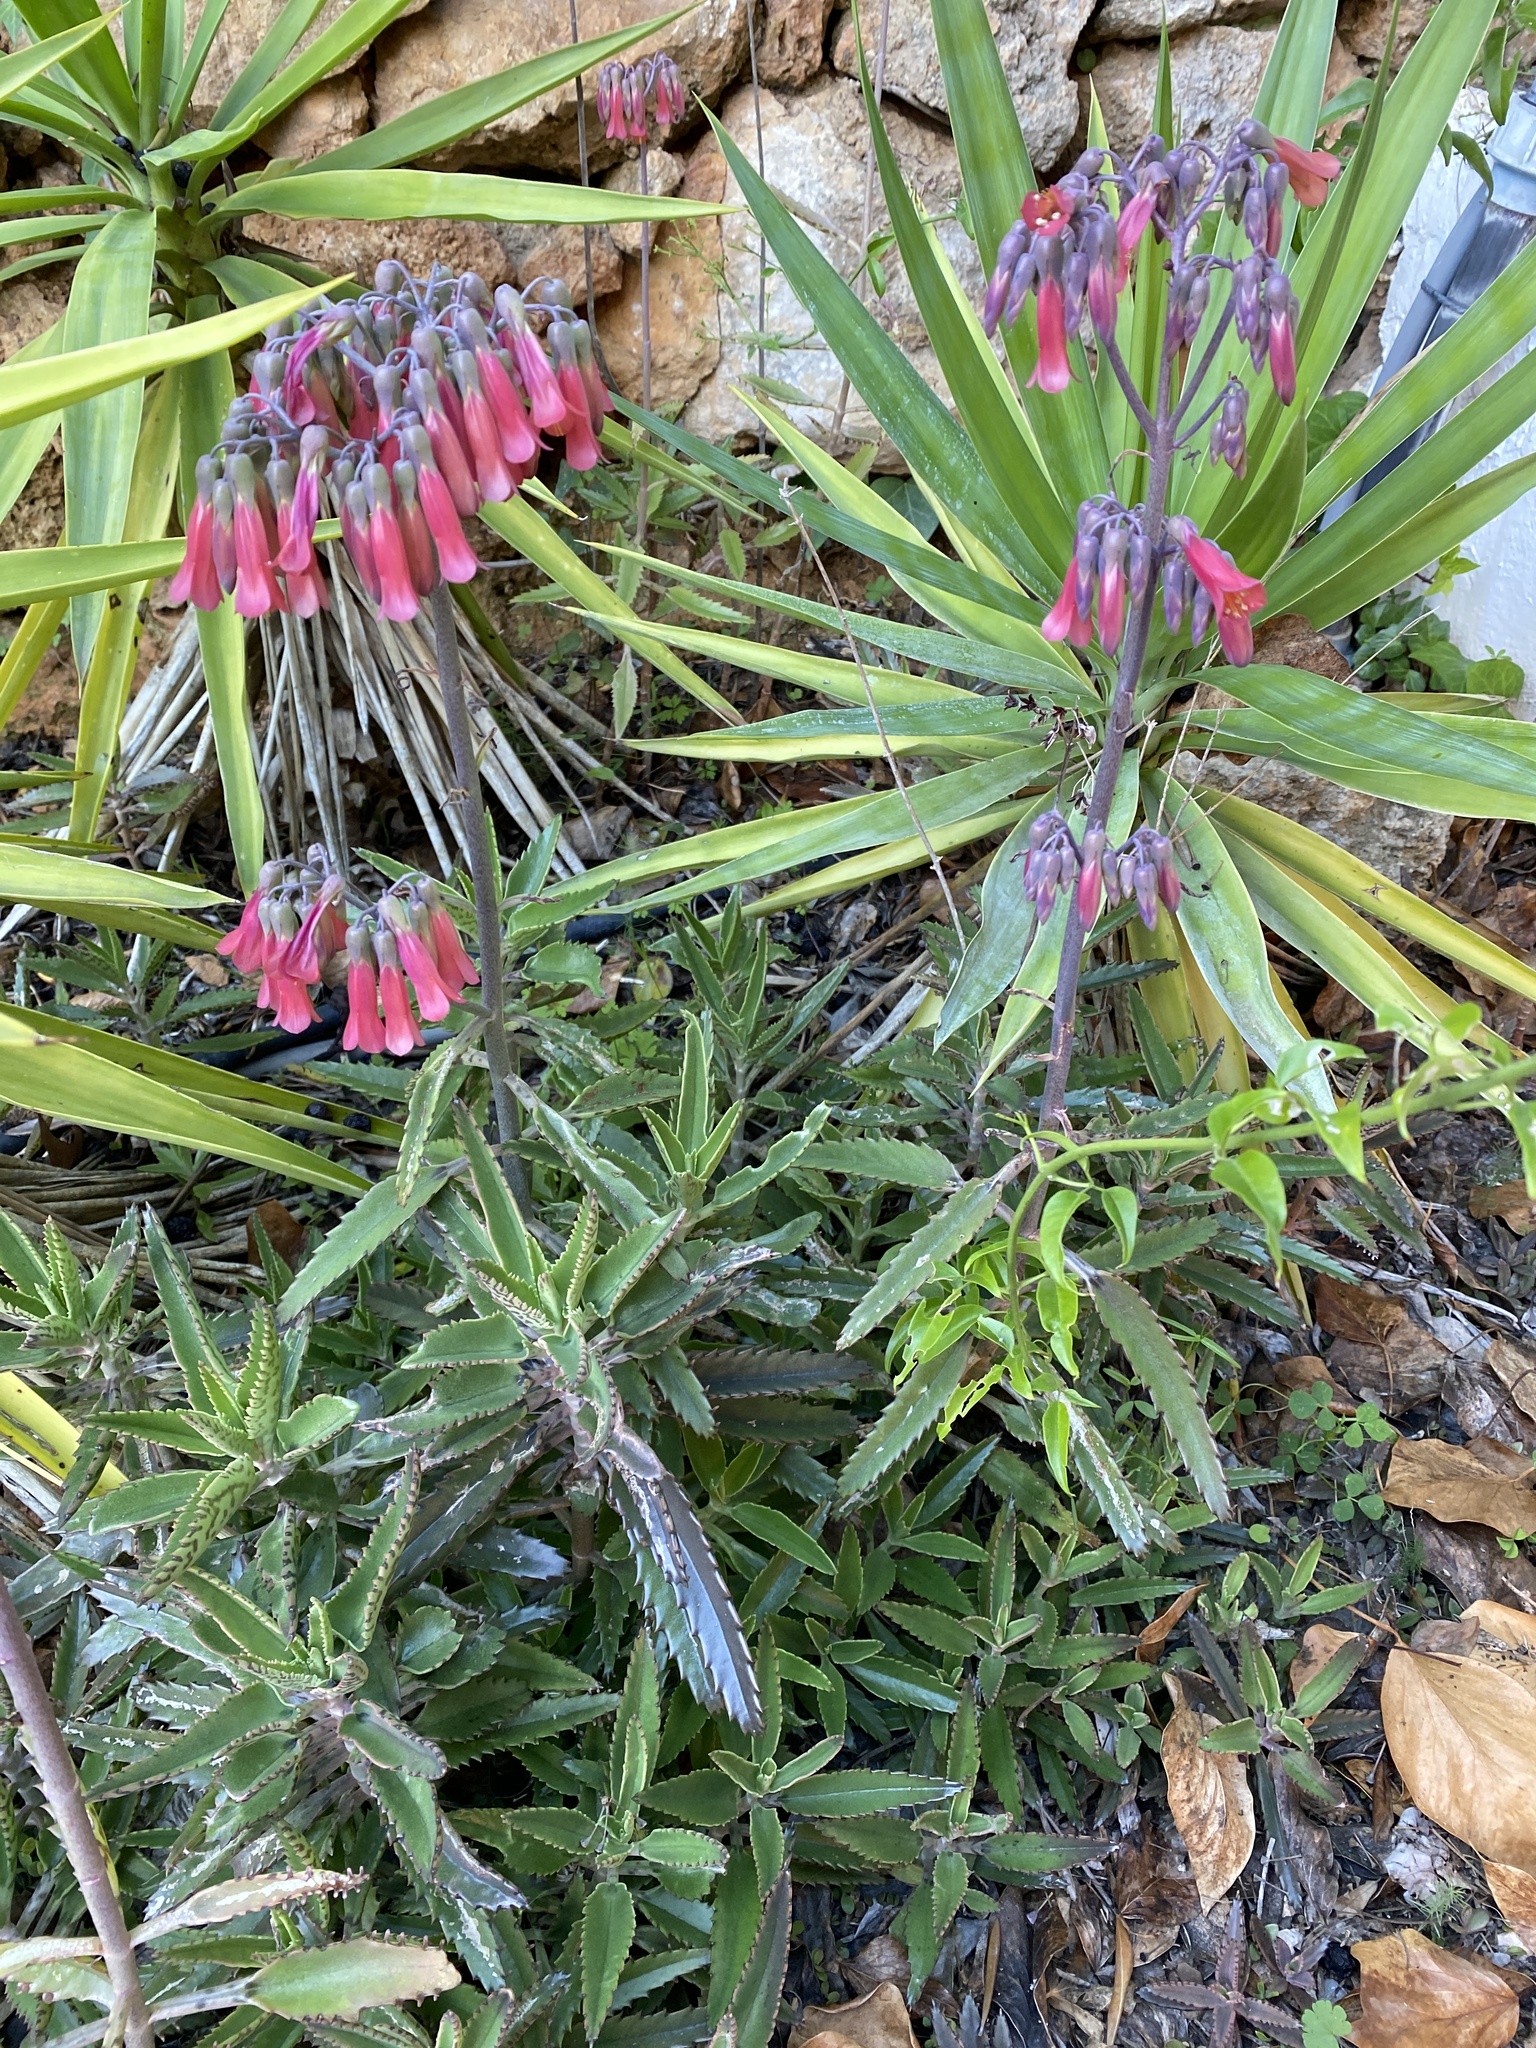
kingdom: Plantae
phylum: Tracheophyta
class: Magnoliopsida
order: Saxifragales
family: Crassulaceae
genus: Kalanchoe
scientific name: Kalanchoe houghtonii
